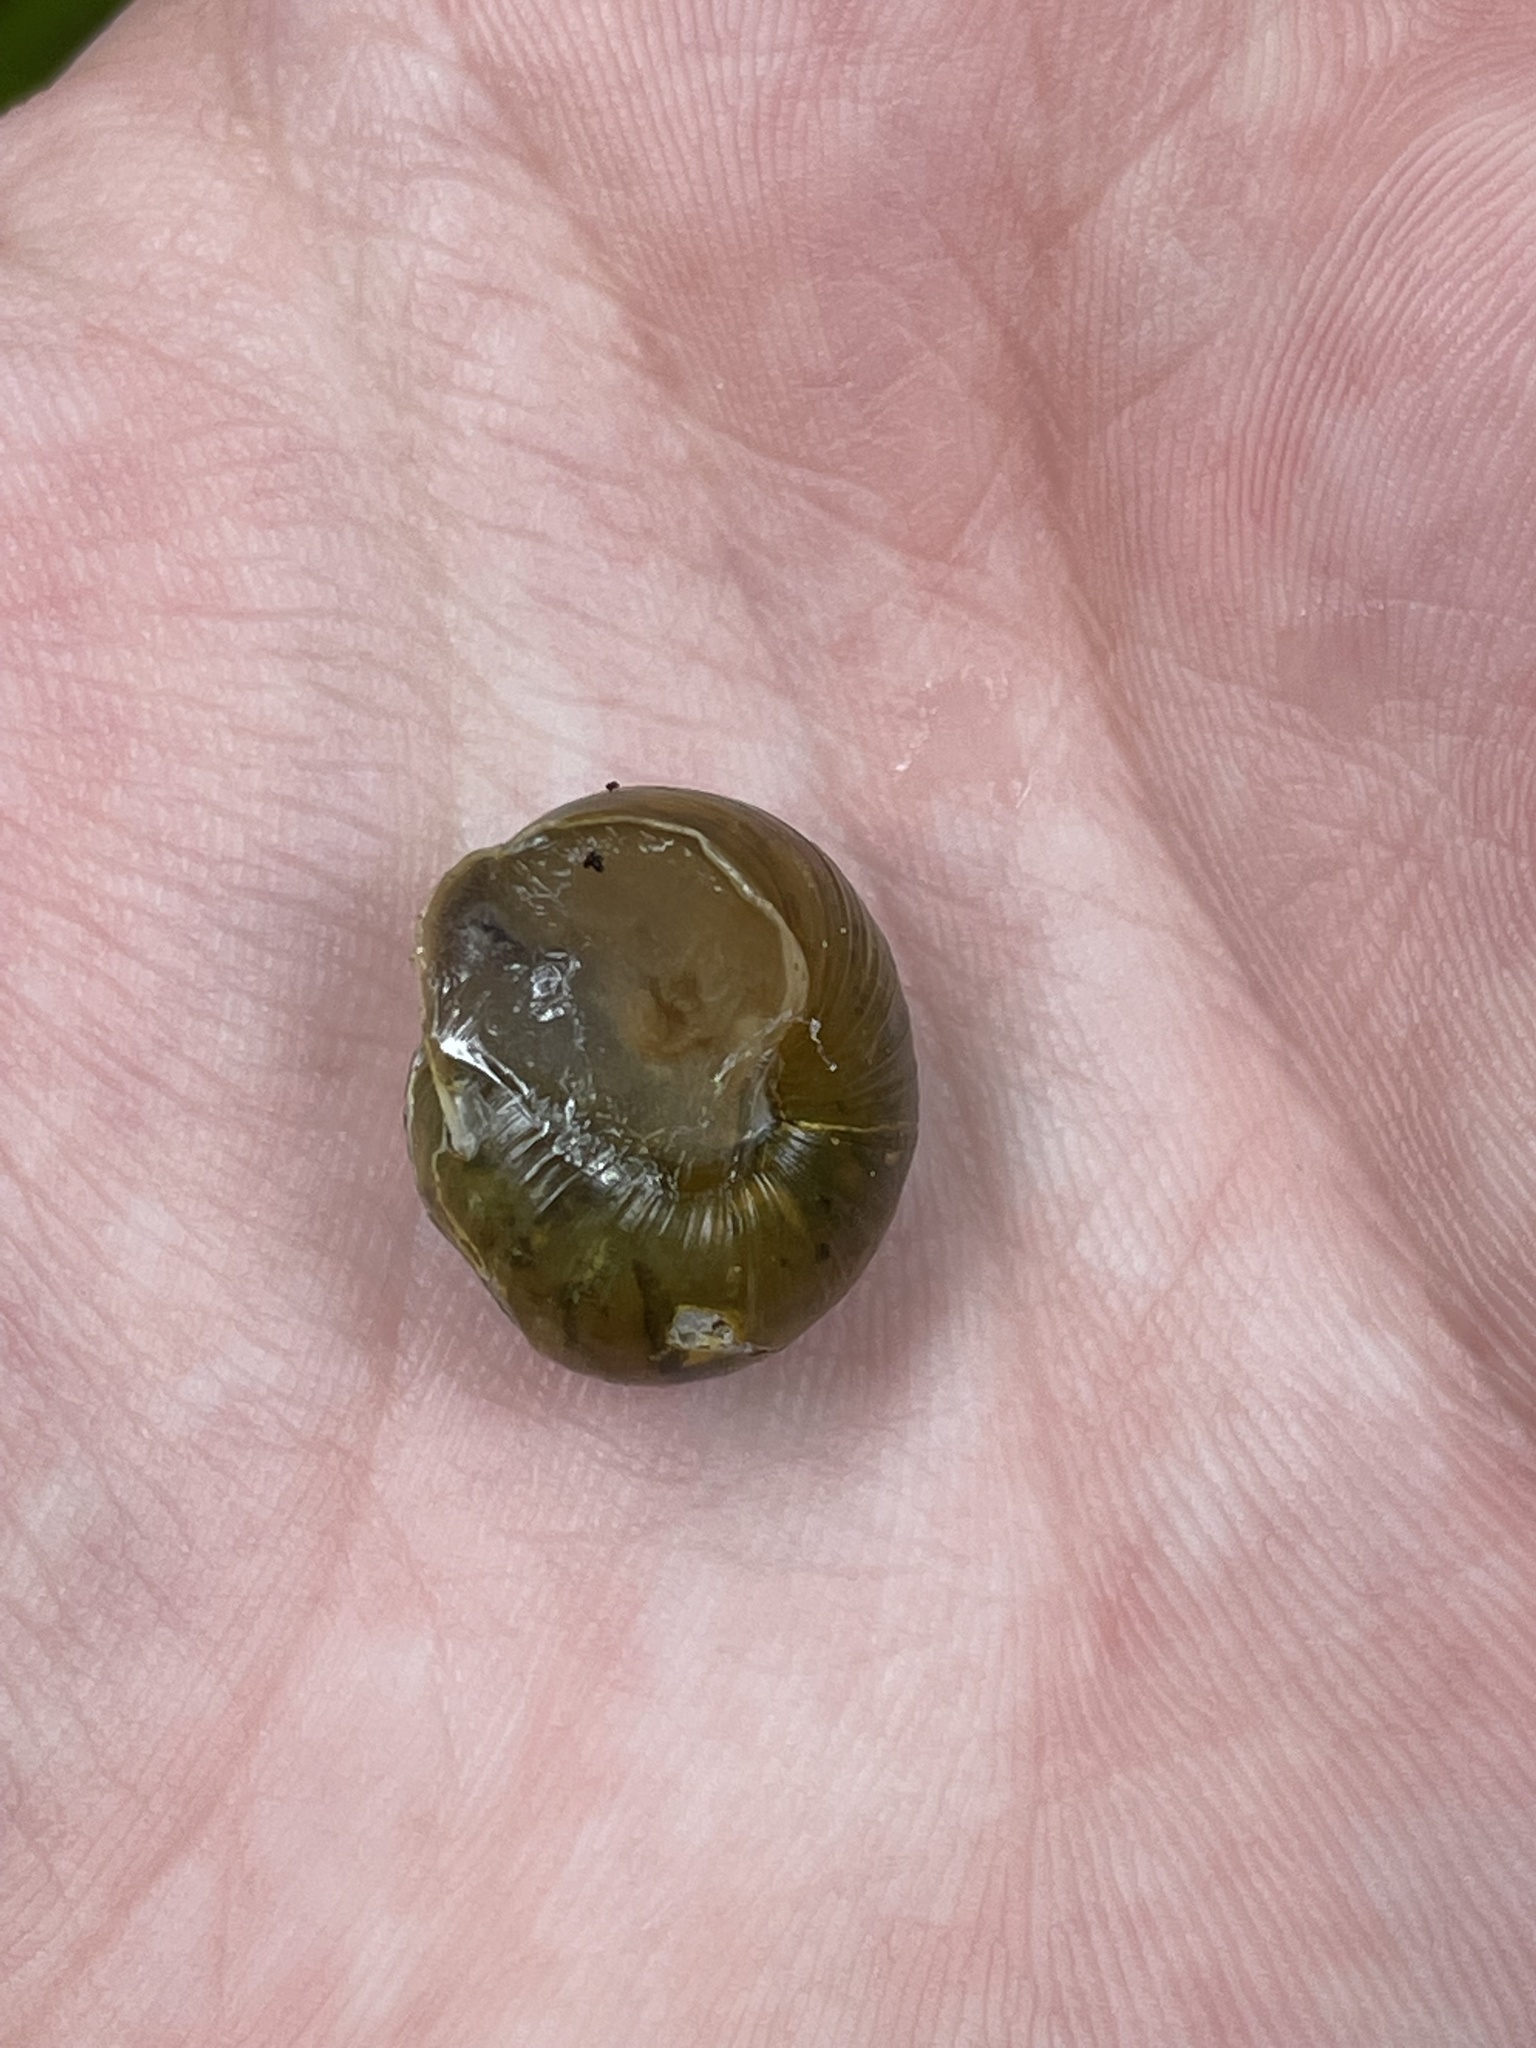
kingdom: Animalia
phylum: Mollusca
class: Gastropoda
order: Stylommatophora
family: Helicidae
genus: Cepaea
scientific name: Cepaea
